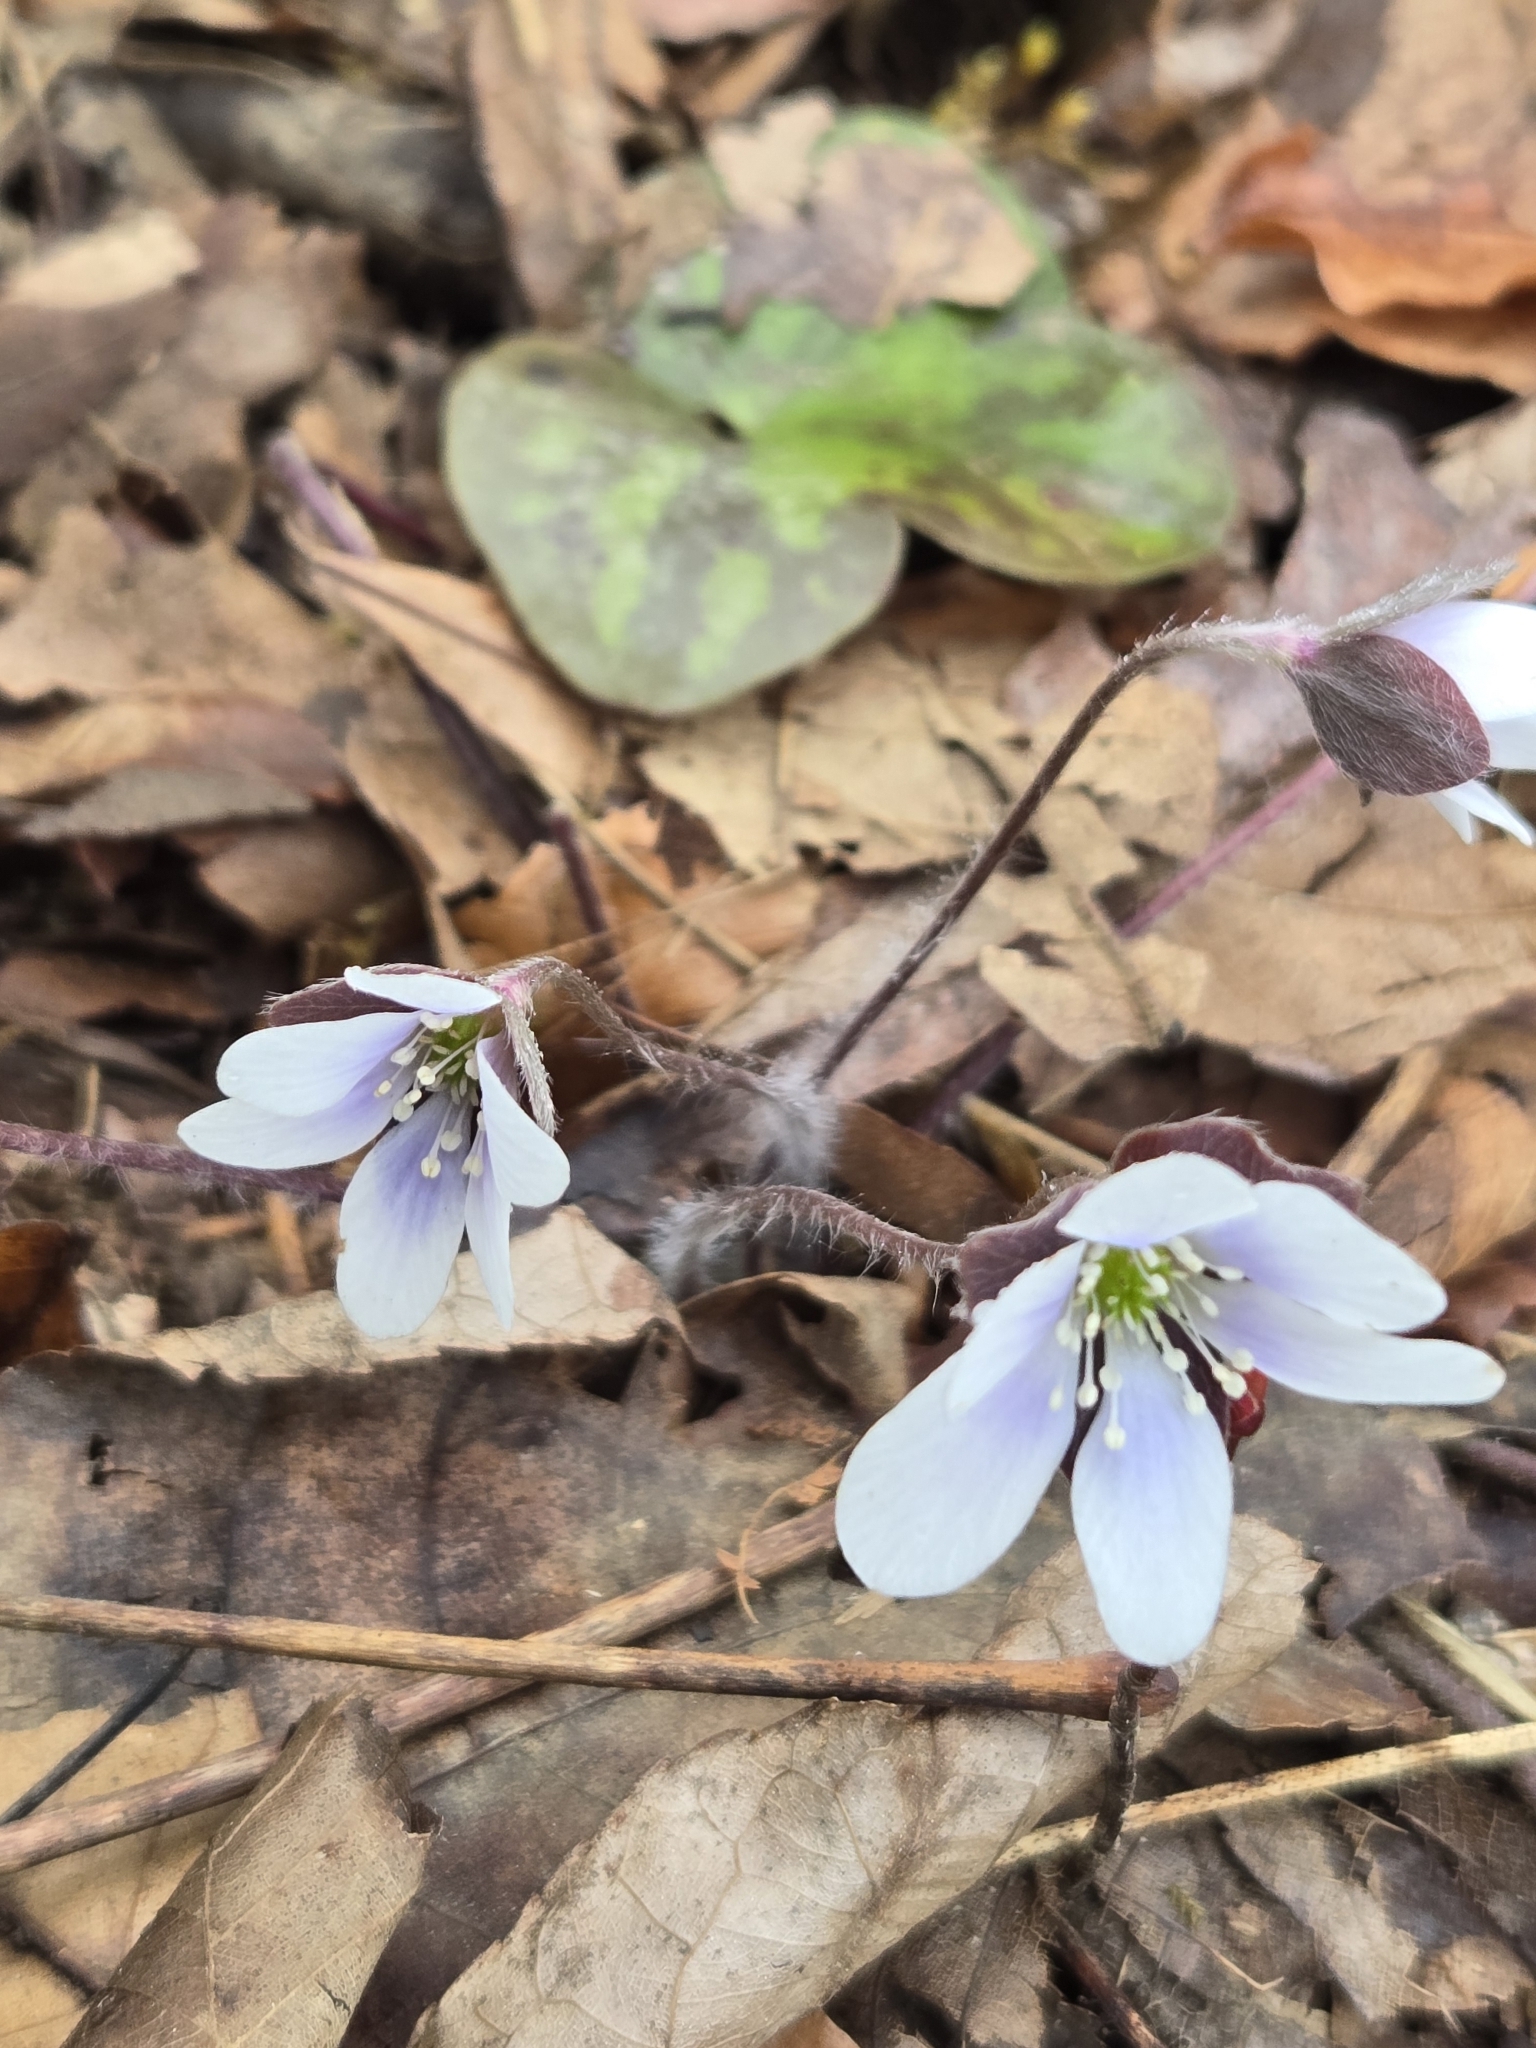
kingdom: Plantae
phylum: Tracheophyta
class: Magnoliopsida
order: Ranunculales
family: Ranunculaceae
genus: Hepatica
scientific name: Hepatica americana
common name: American hepatica
